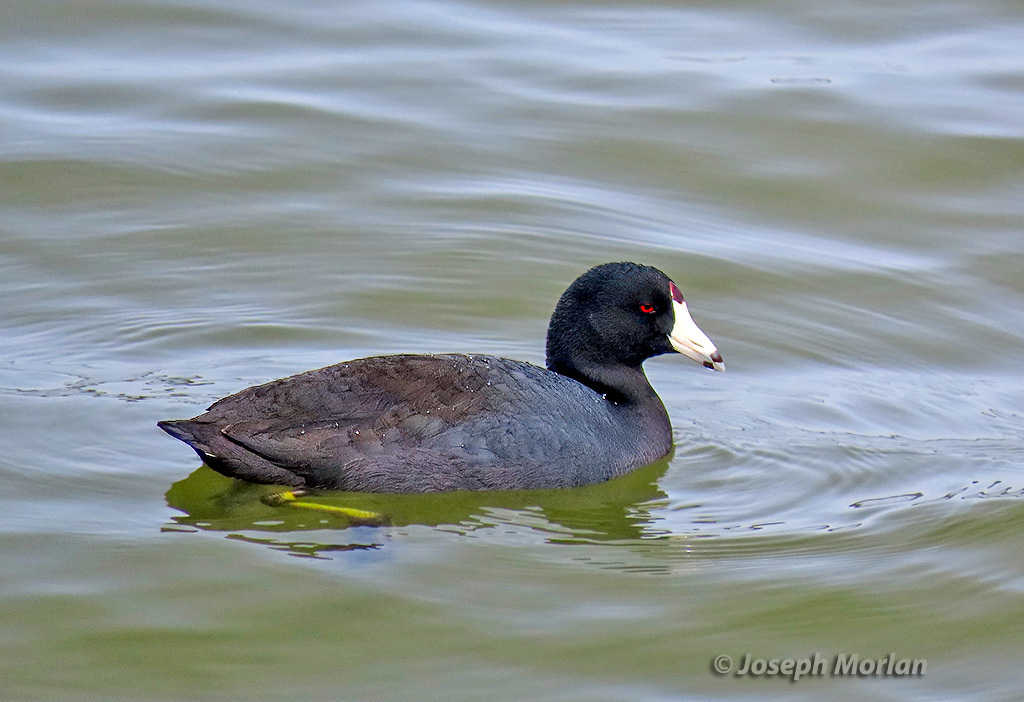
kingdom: Animalia
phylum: Chordata
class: Aves
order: Gruiformes
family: Rallidae
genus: Fulica
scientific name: Fulica americana
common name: American coot
